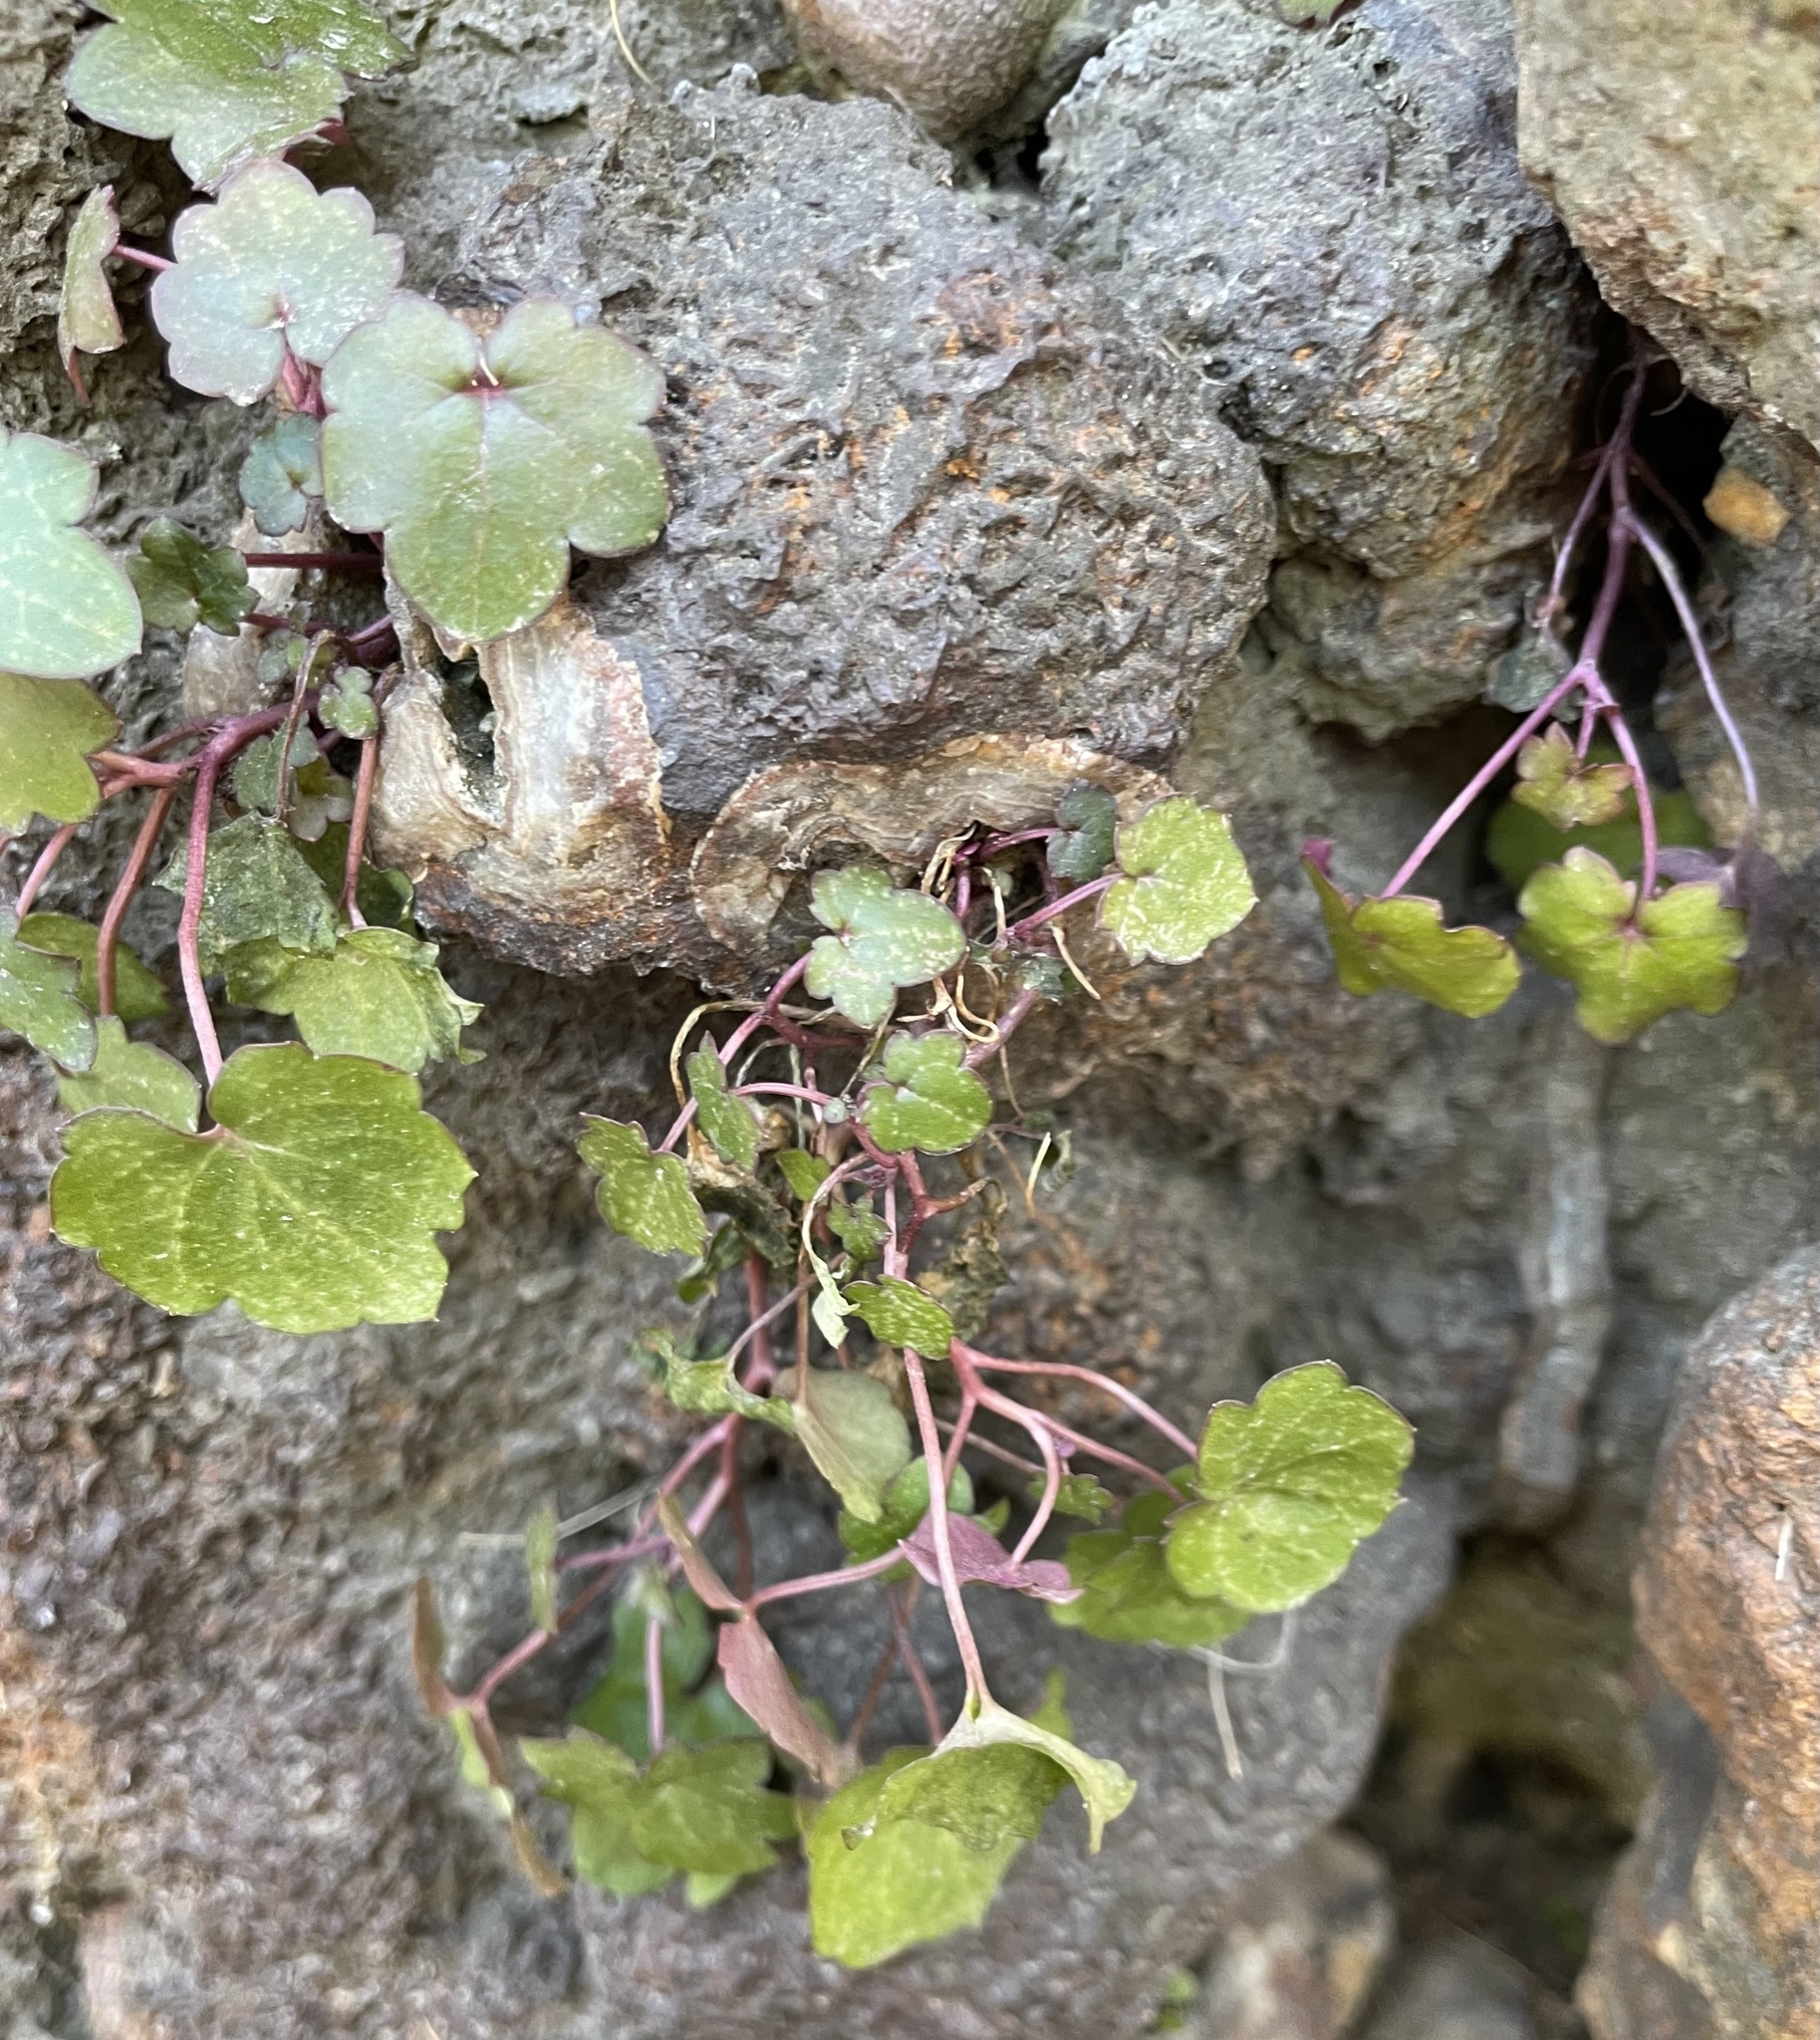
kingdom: Plantae
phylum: Tracheophyta
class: Magnoliopsida
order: Lamiales
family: Plantaginaceae
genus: Cymbalaria
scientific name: Cymbalaria muralis
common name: Ivy-leaved toadflax
